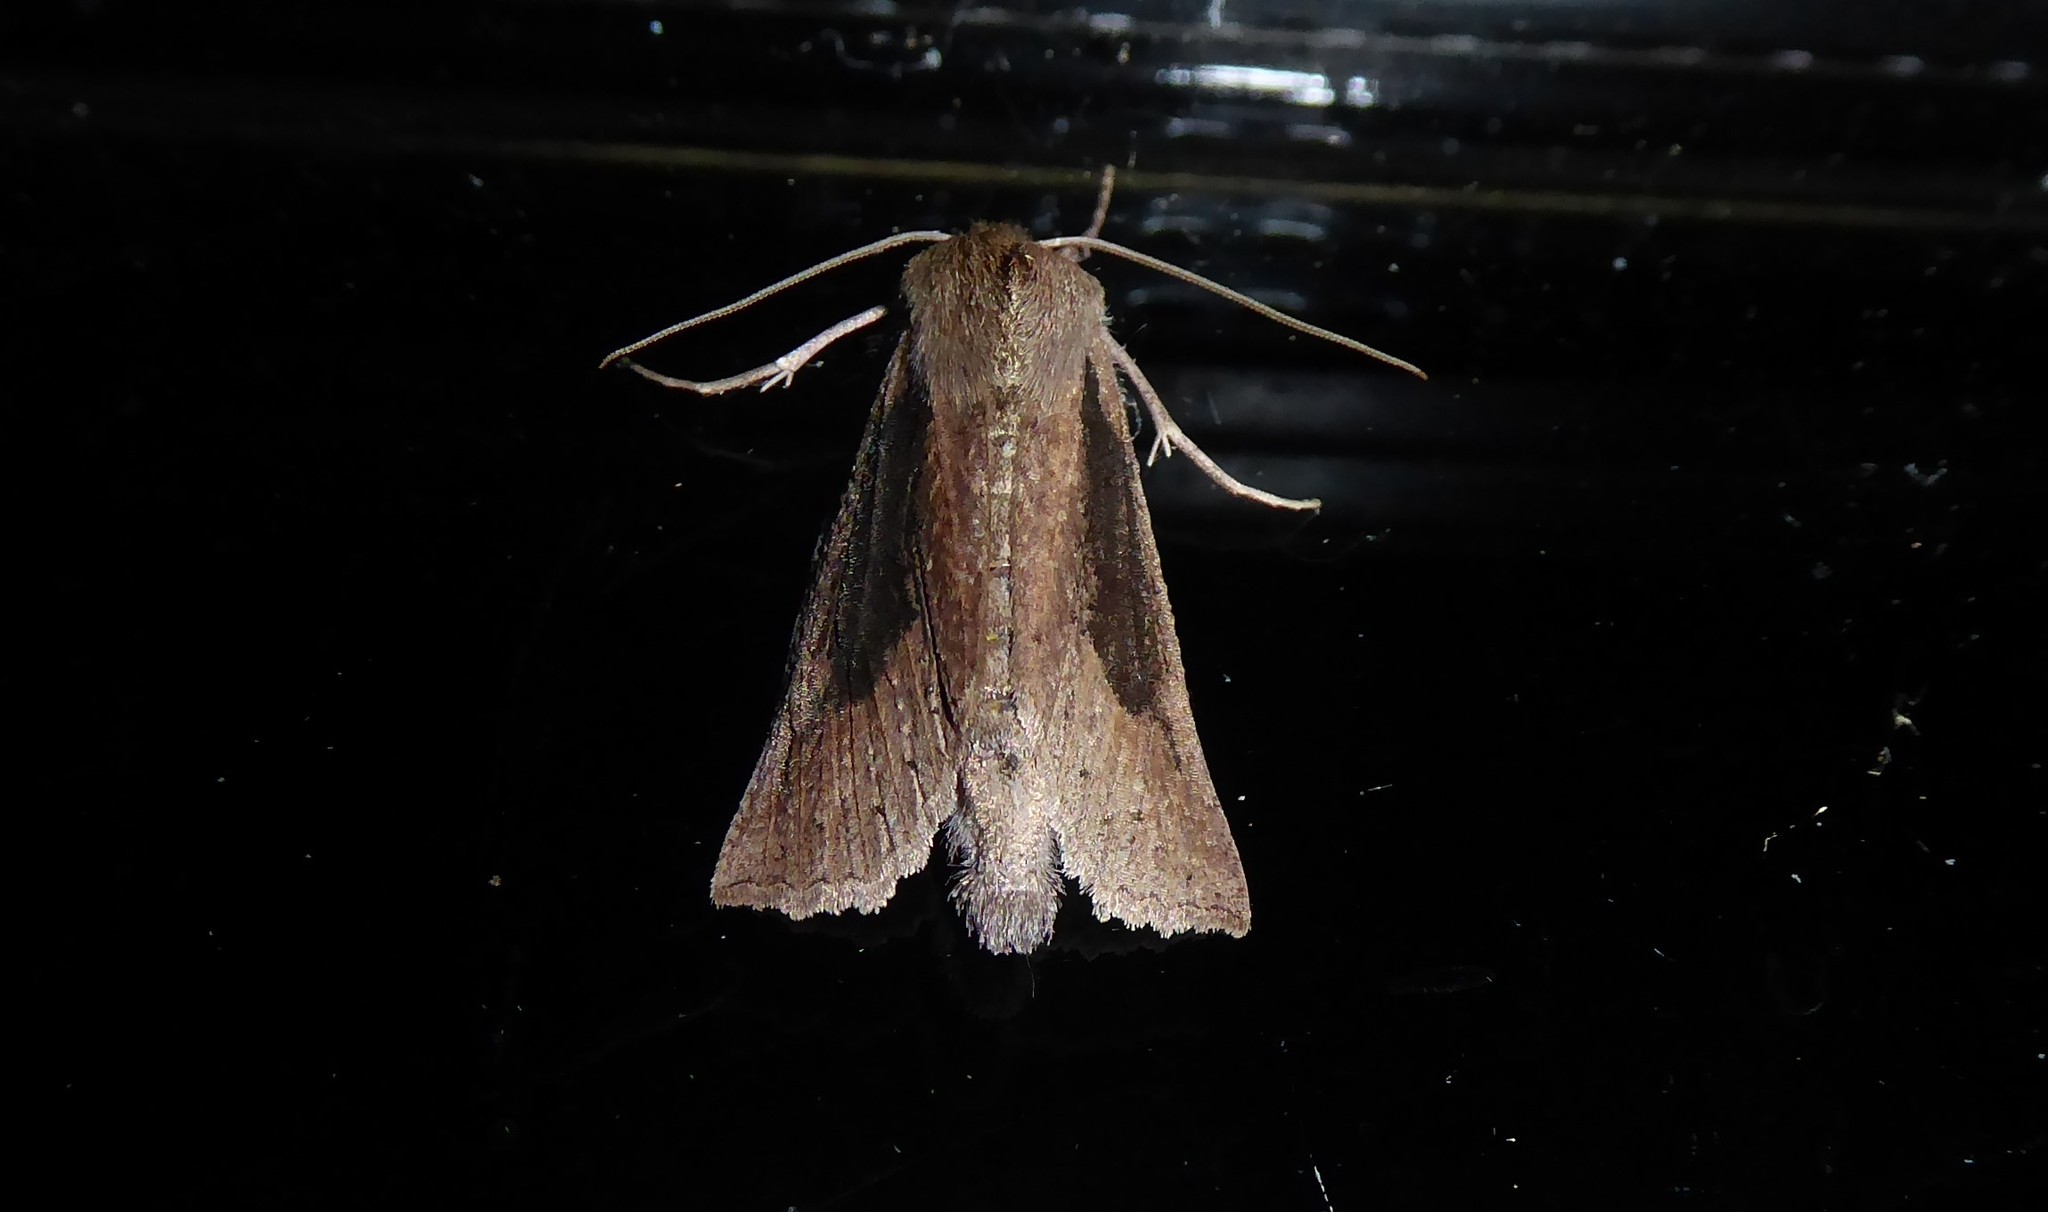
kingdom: Animalia
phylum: Arthropoda
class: Insecta
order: Lepidoptera
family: Geometridae
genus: Declana
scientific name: Declana leptomera
